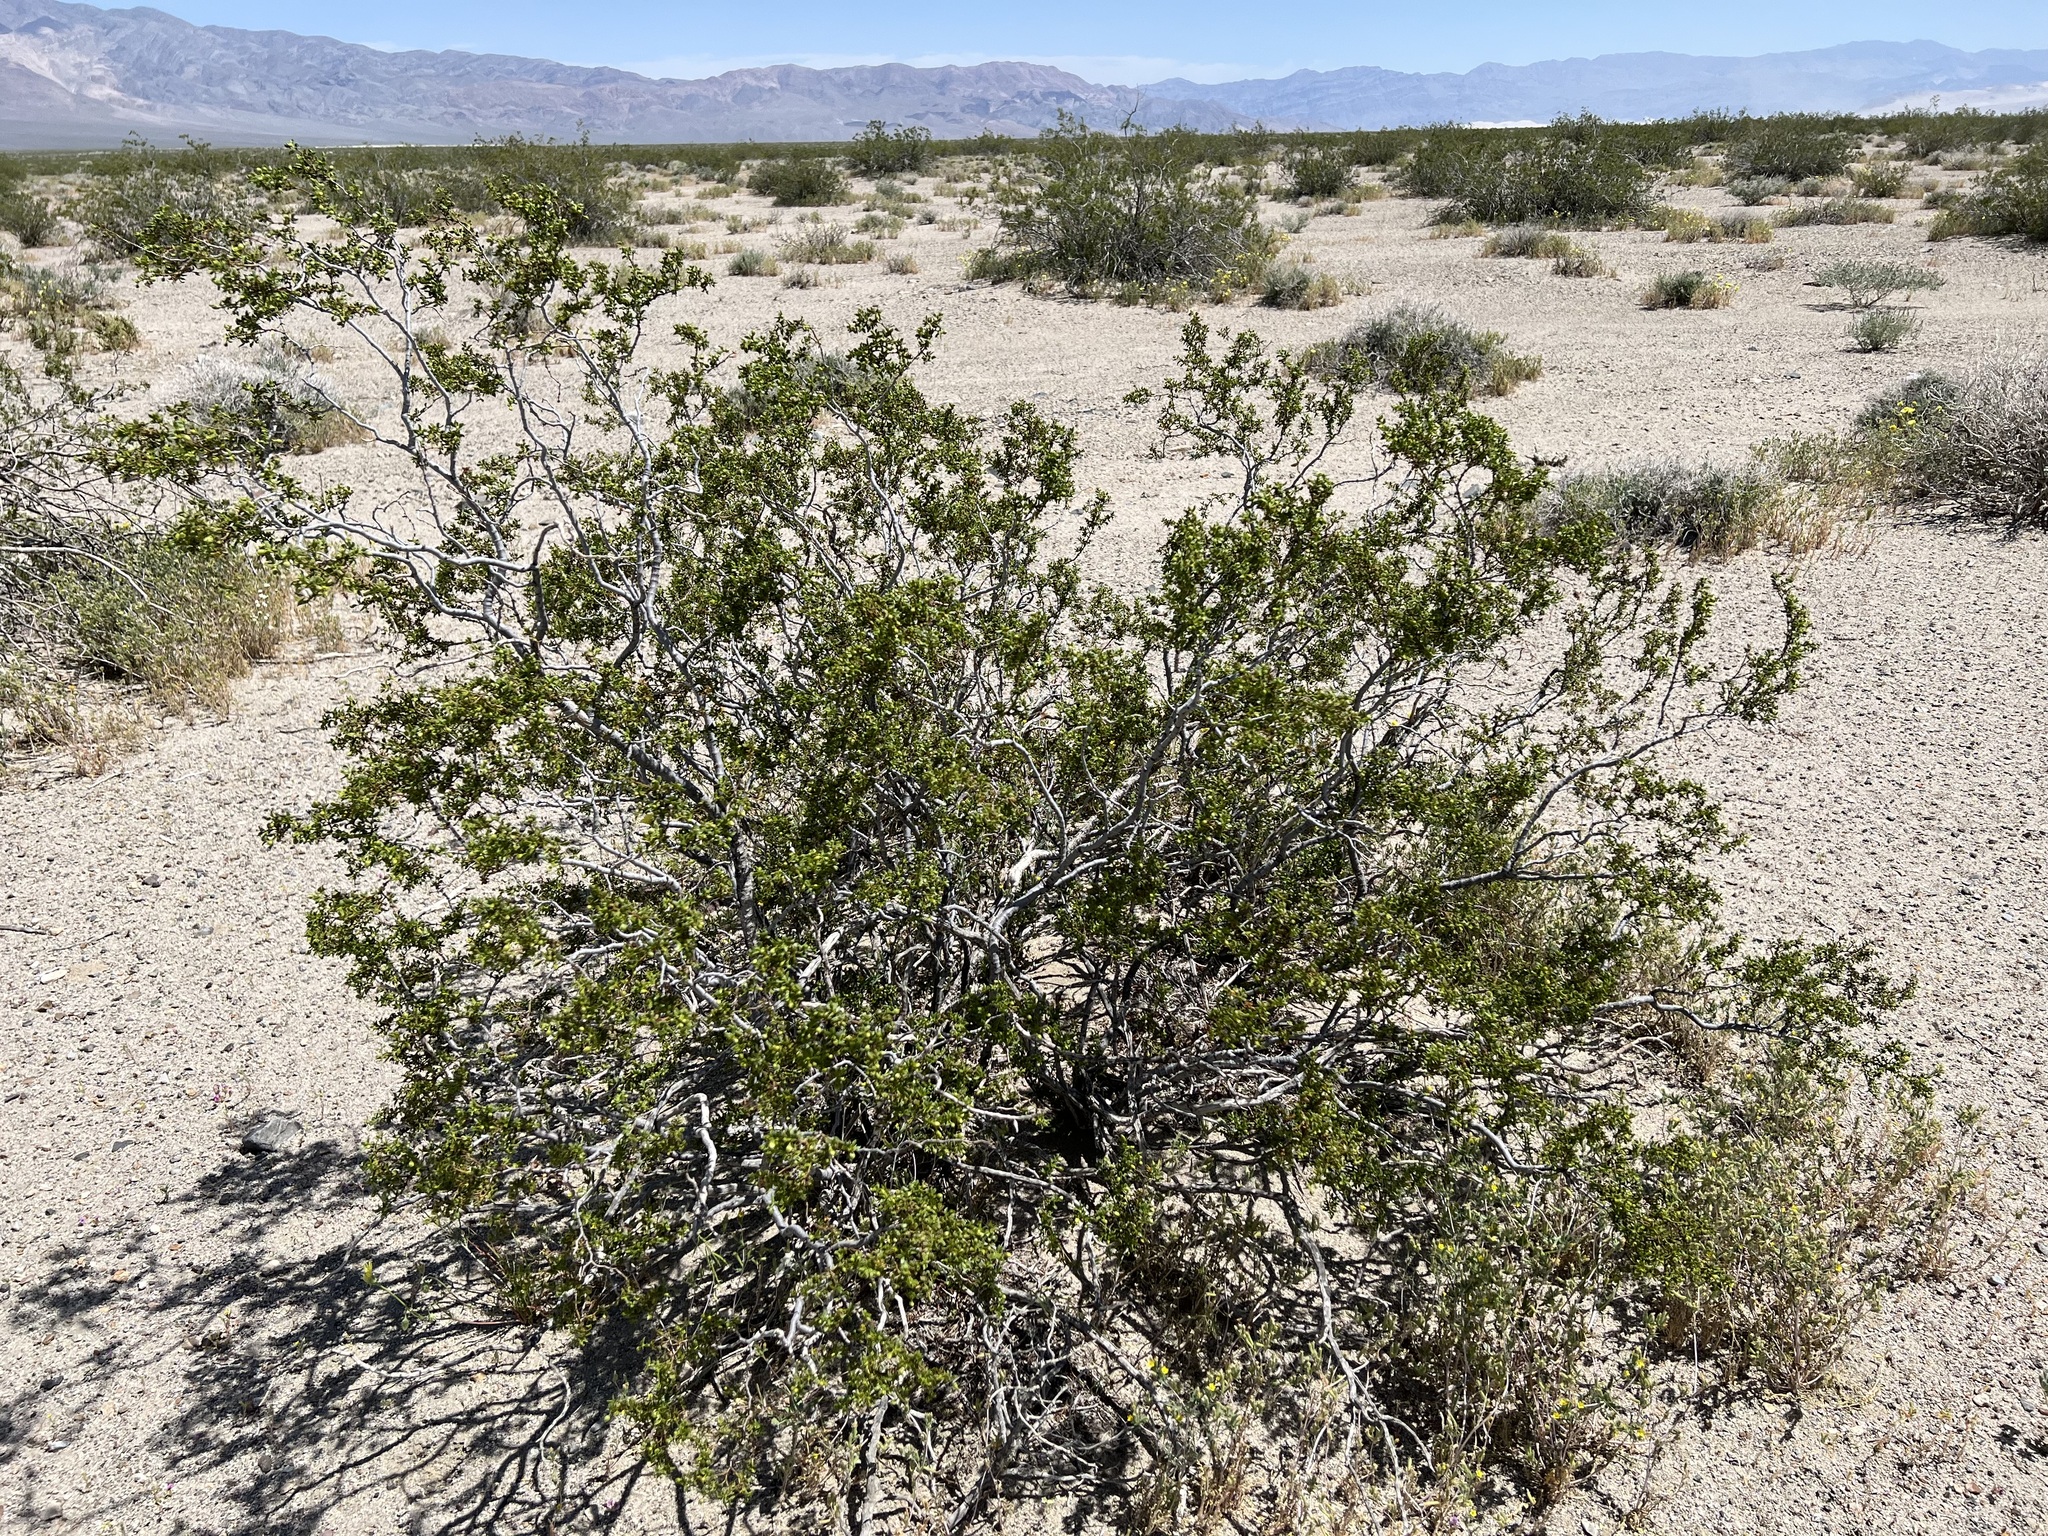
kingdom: Plantae
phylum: Tracheophyta
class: Magnoliopsida
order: Zygophyllales
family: Zygophyllaceae
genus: Larrea
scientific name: Larrea tridentata
